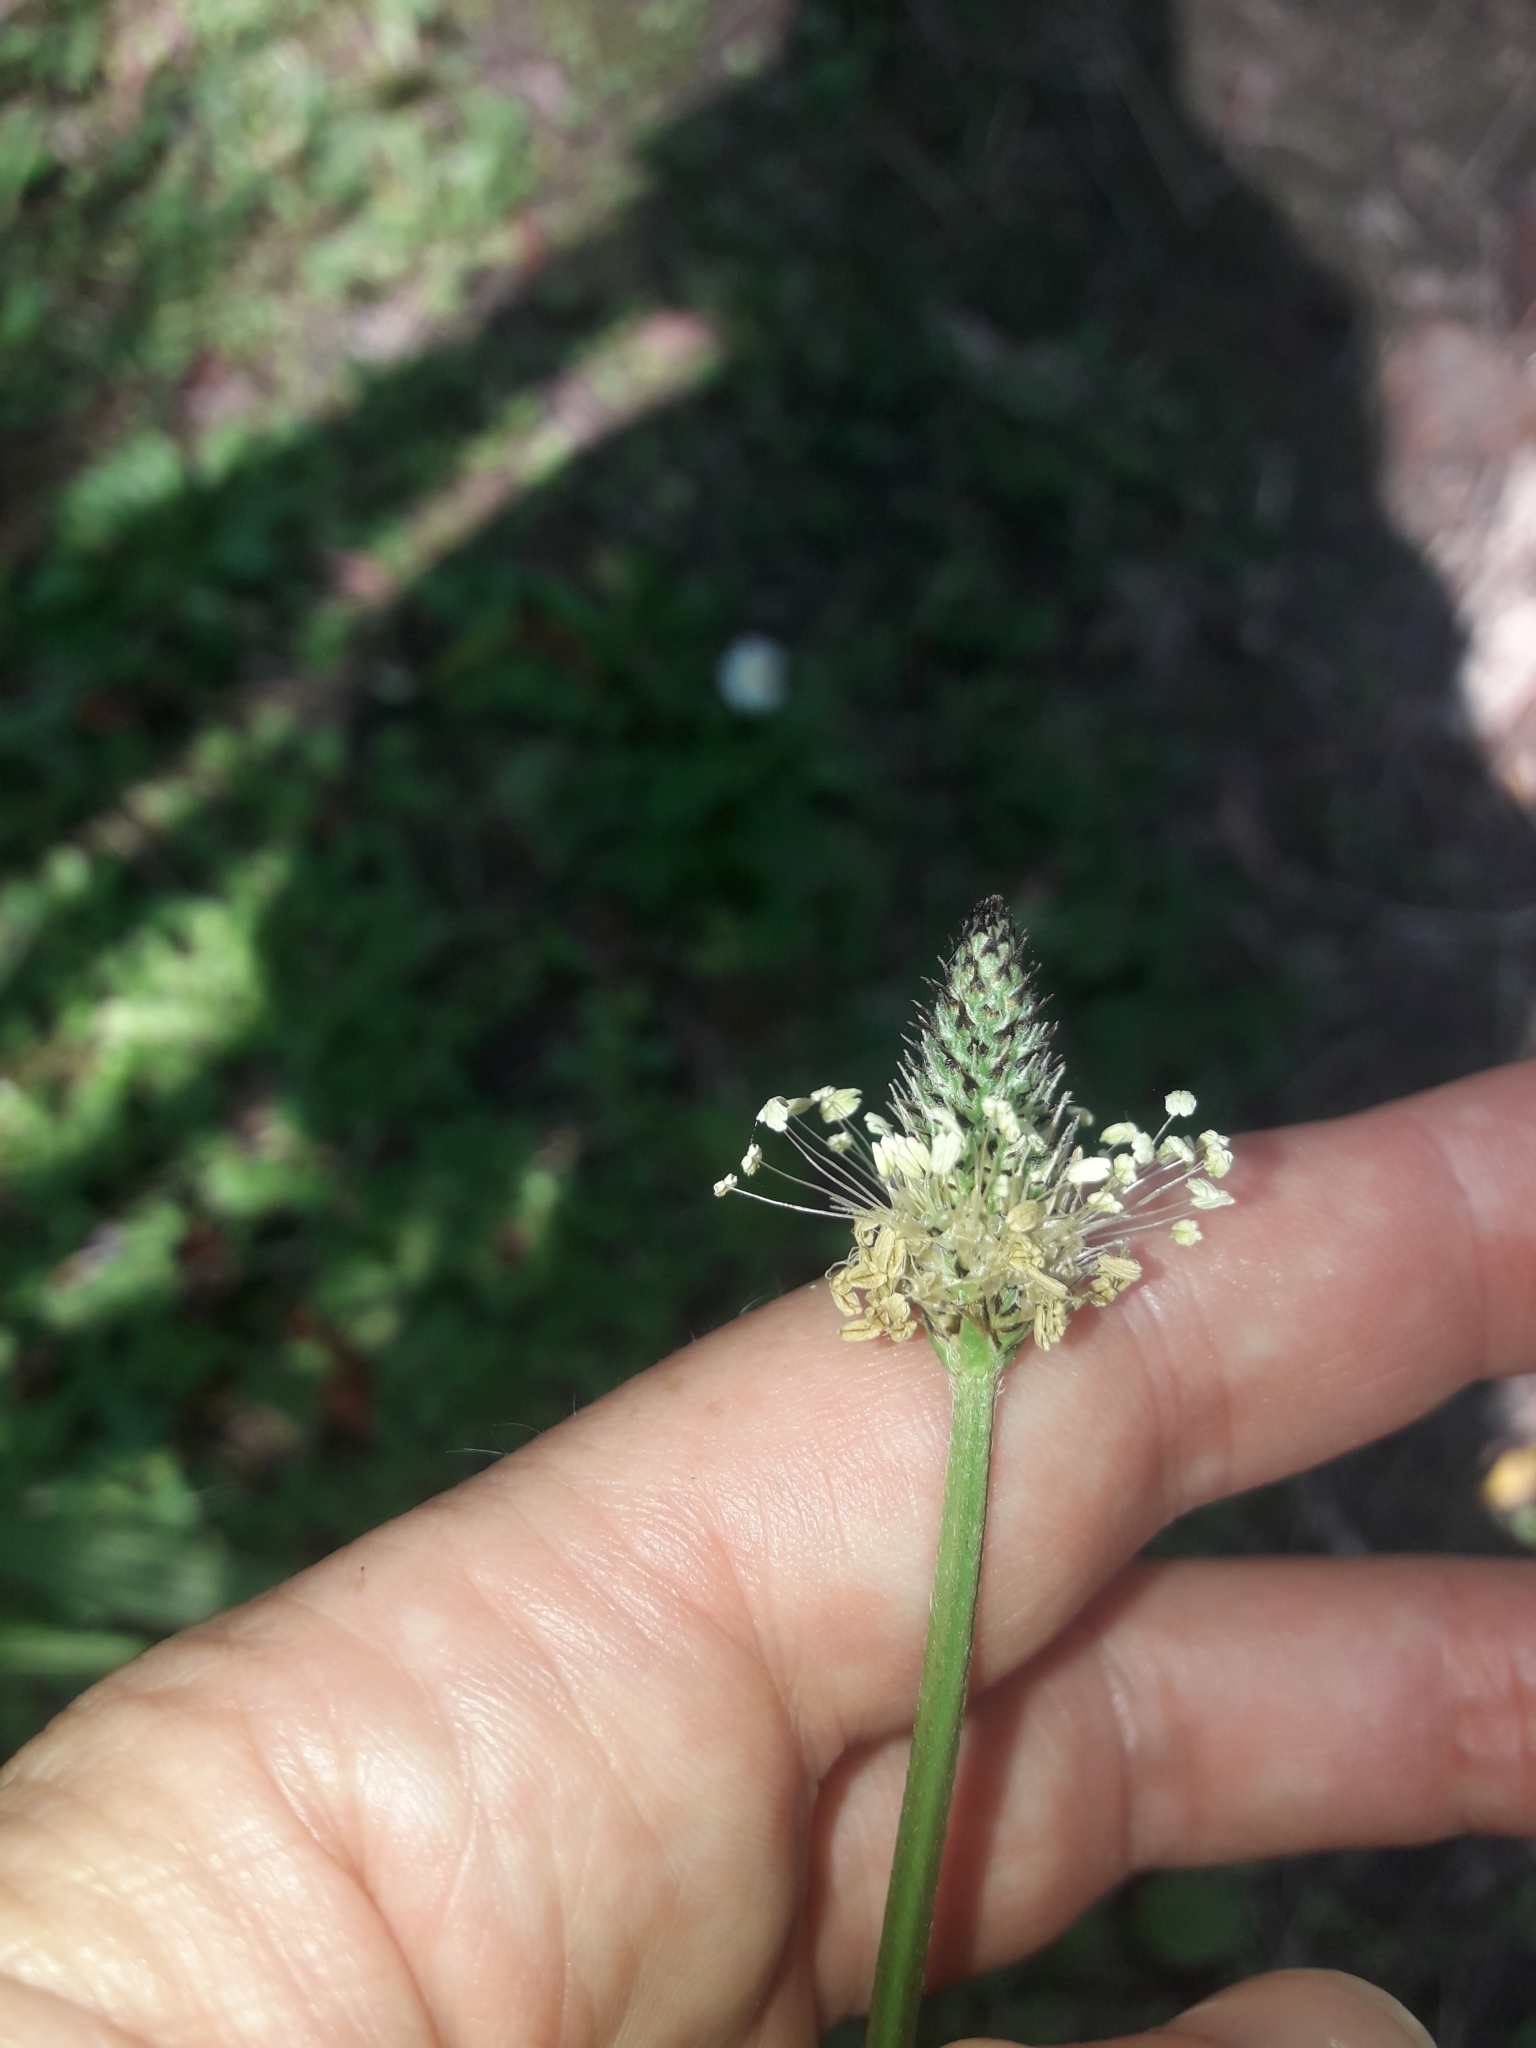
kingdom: Plantae
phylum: Tracheophyta
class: Magnoliopsida
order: Lamiales
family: Plantaginaceae
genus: Plantago
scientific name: Plantago lanceolata
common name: Ribwort plantain
